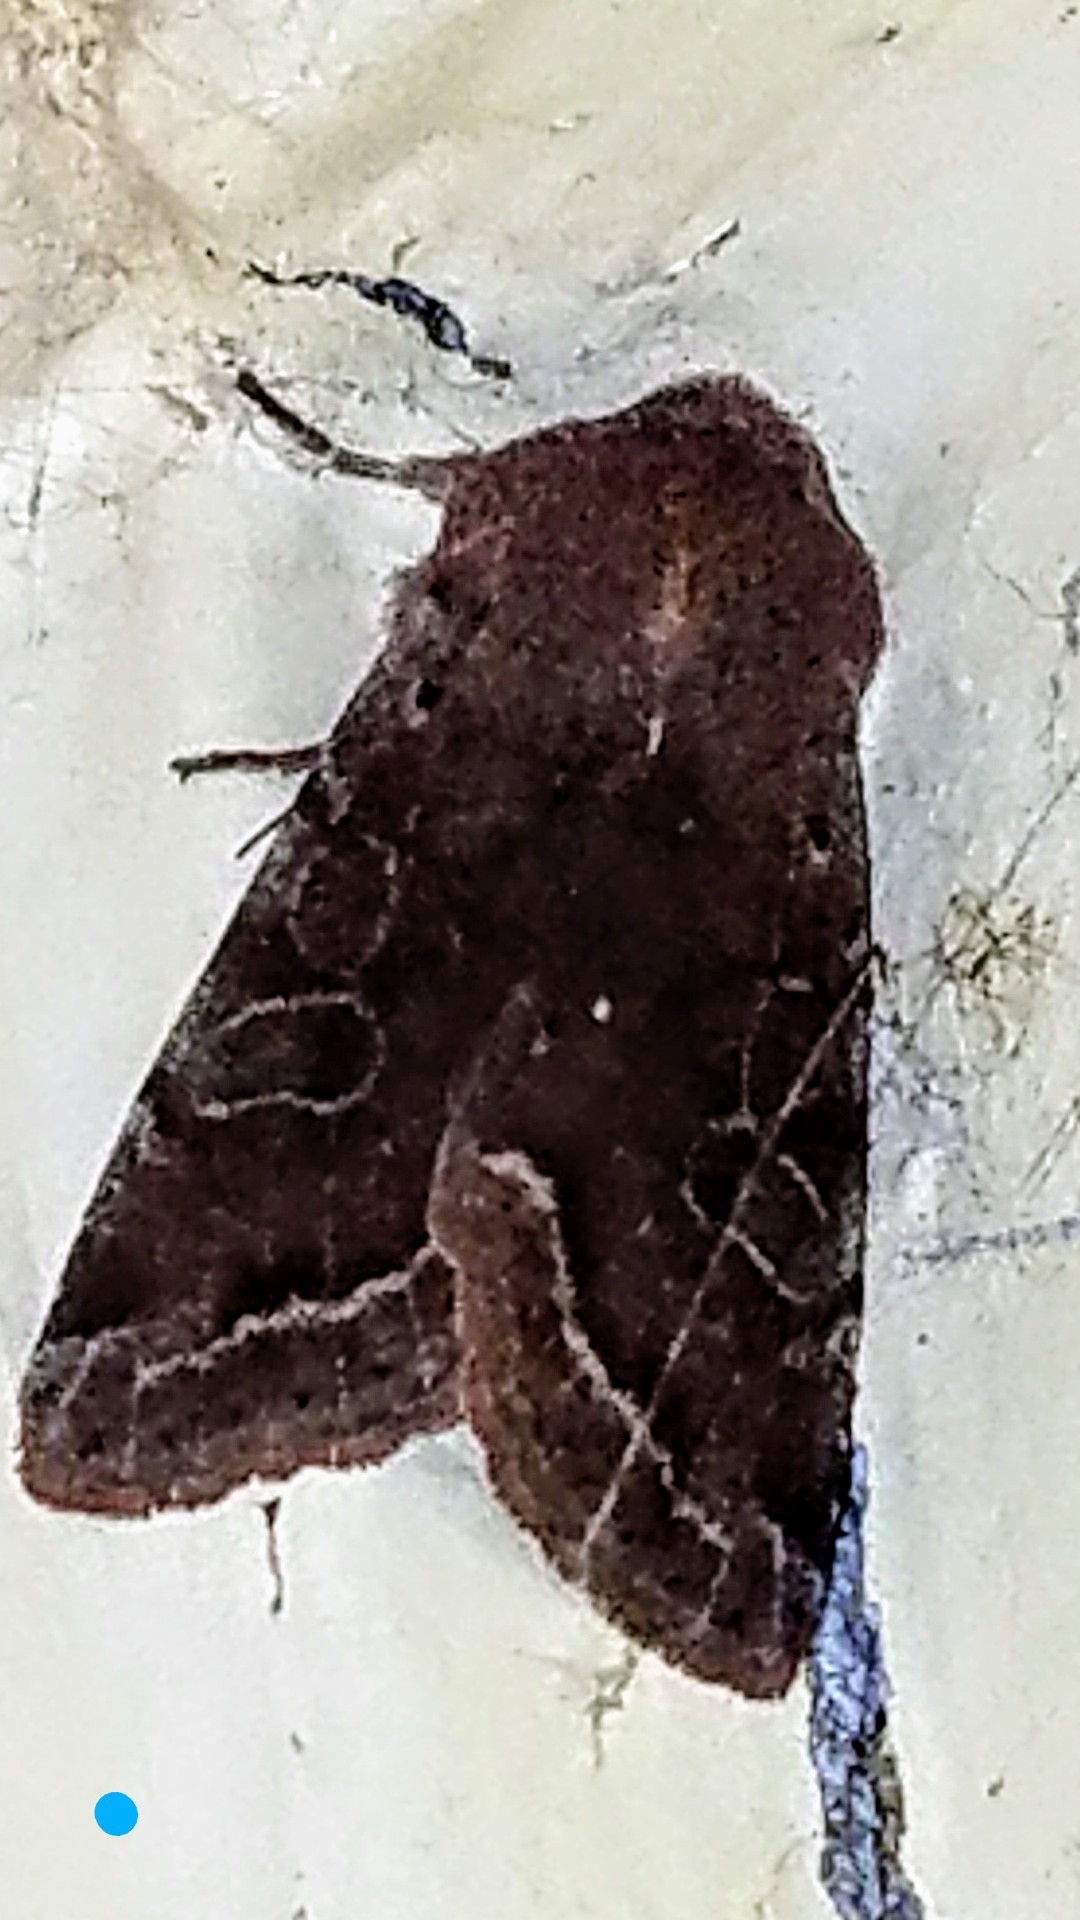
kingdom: Animalia
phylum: Arthropoda
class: Insecta
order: Lepidoptera
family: Noctuidae
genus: Orthosia
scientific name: Orthosia hibisci
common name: Green fruitworm
